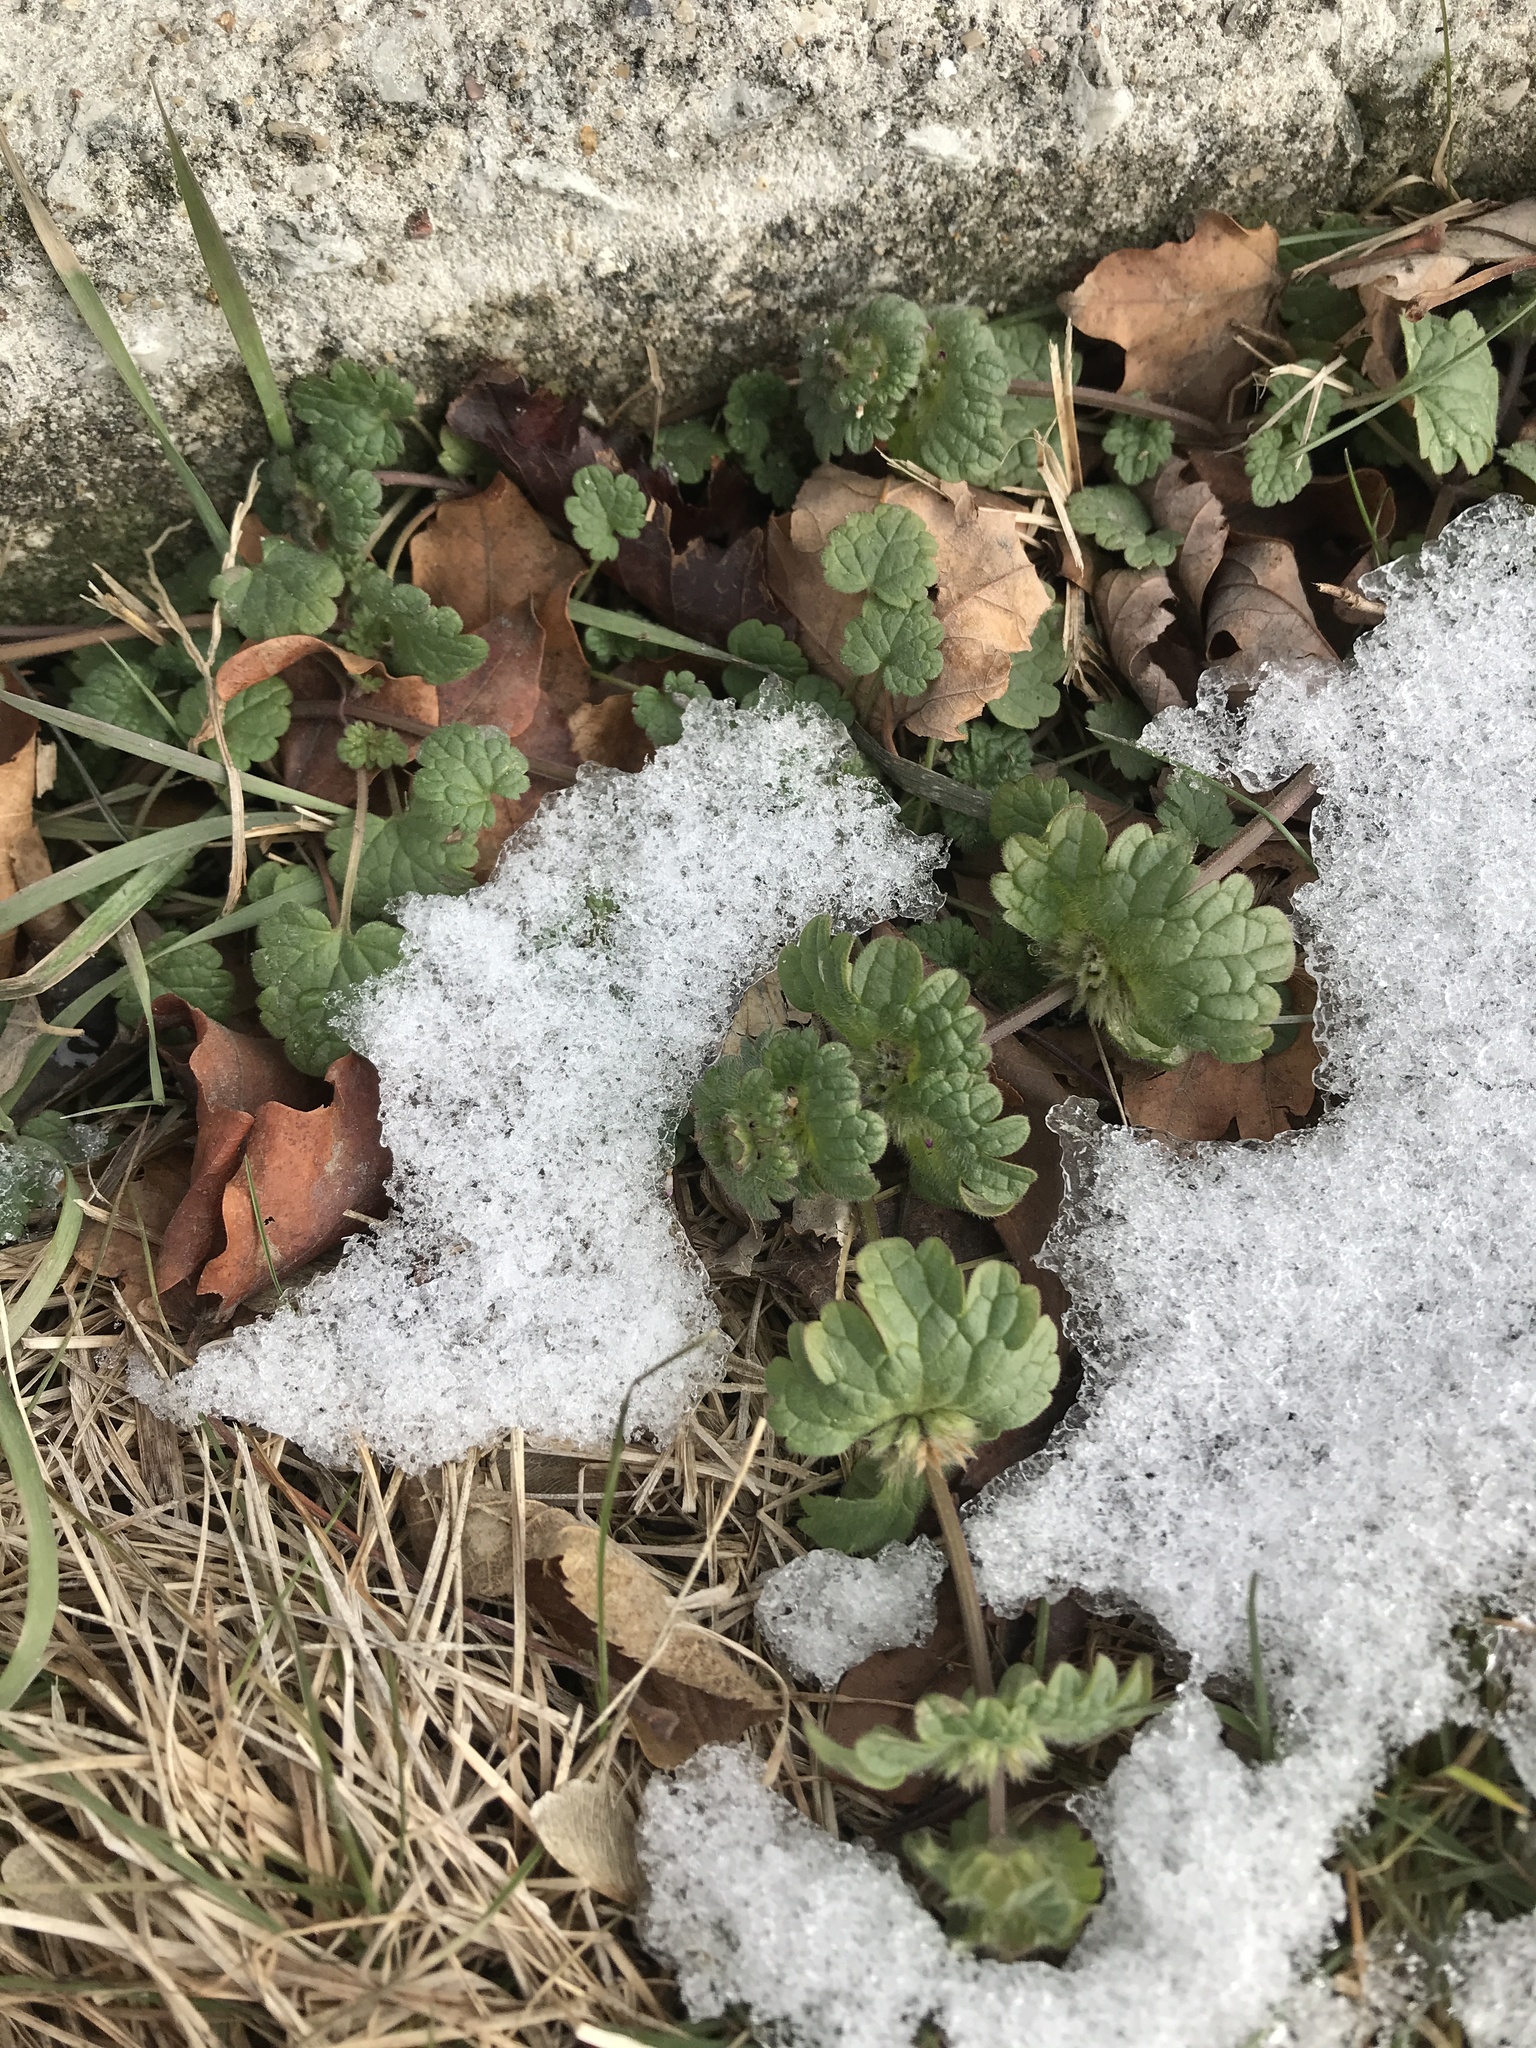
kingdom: Plantae
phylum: Tracheophyta
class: Magnoliopsida
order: Lamiales
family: Lamiaceae
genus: Lamium
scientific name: Lamium amplexicaule
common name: Henbit dead-nettle
